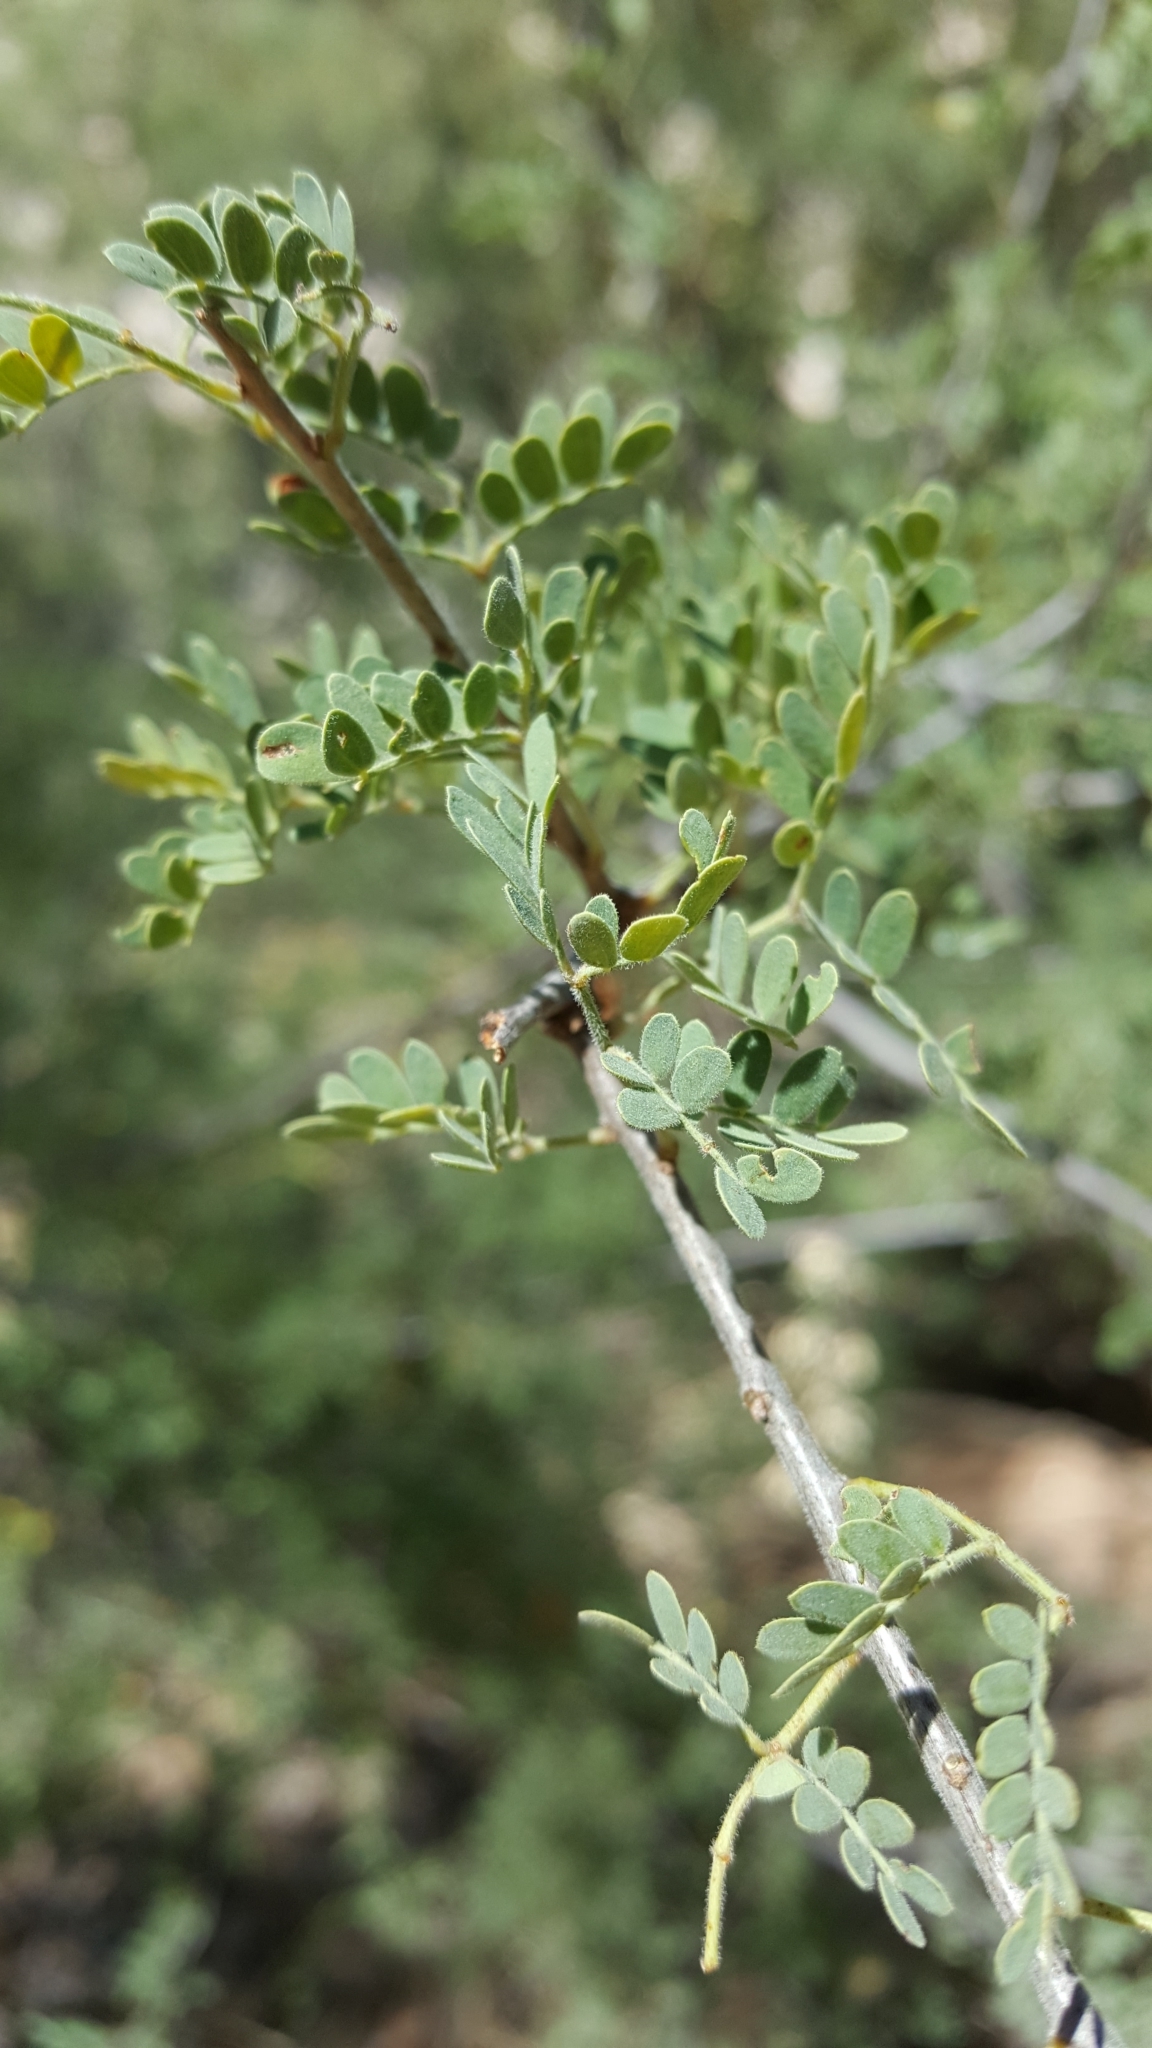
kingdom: Plantae
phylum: Tracheophyta
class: Magnoliopsida
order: Fabales
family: Fabaceae
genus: Senegalia
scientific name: Senegalia greggii
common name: Texas-mimosa
